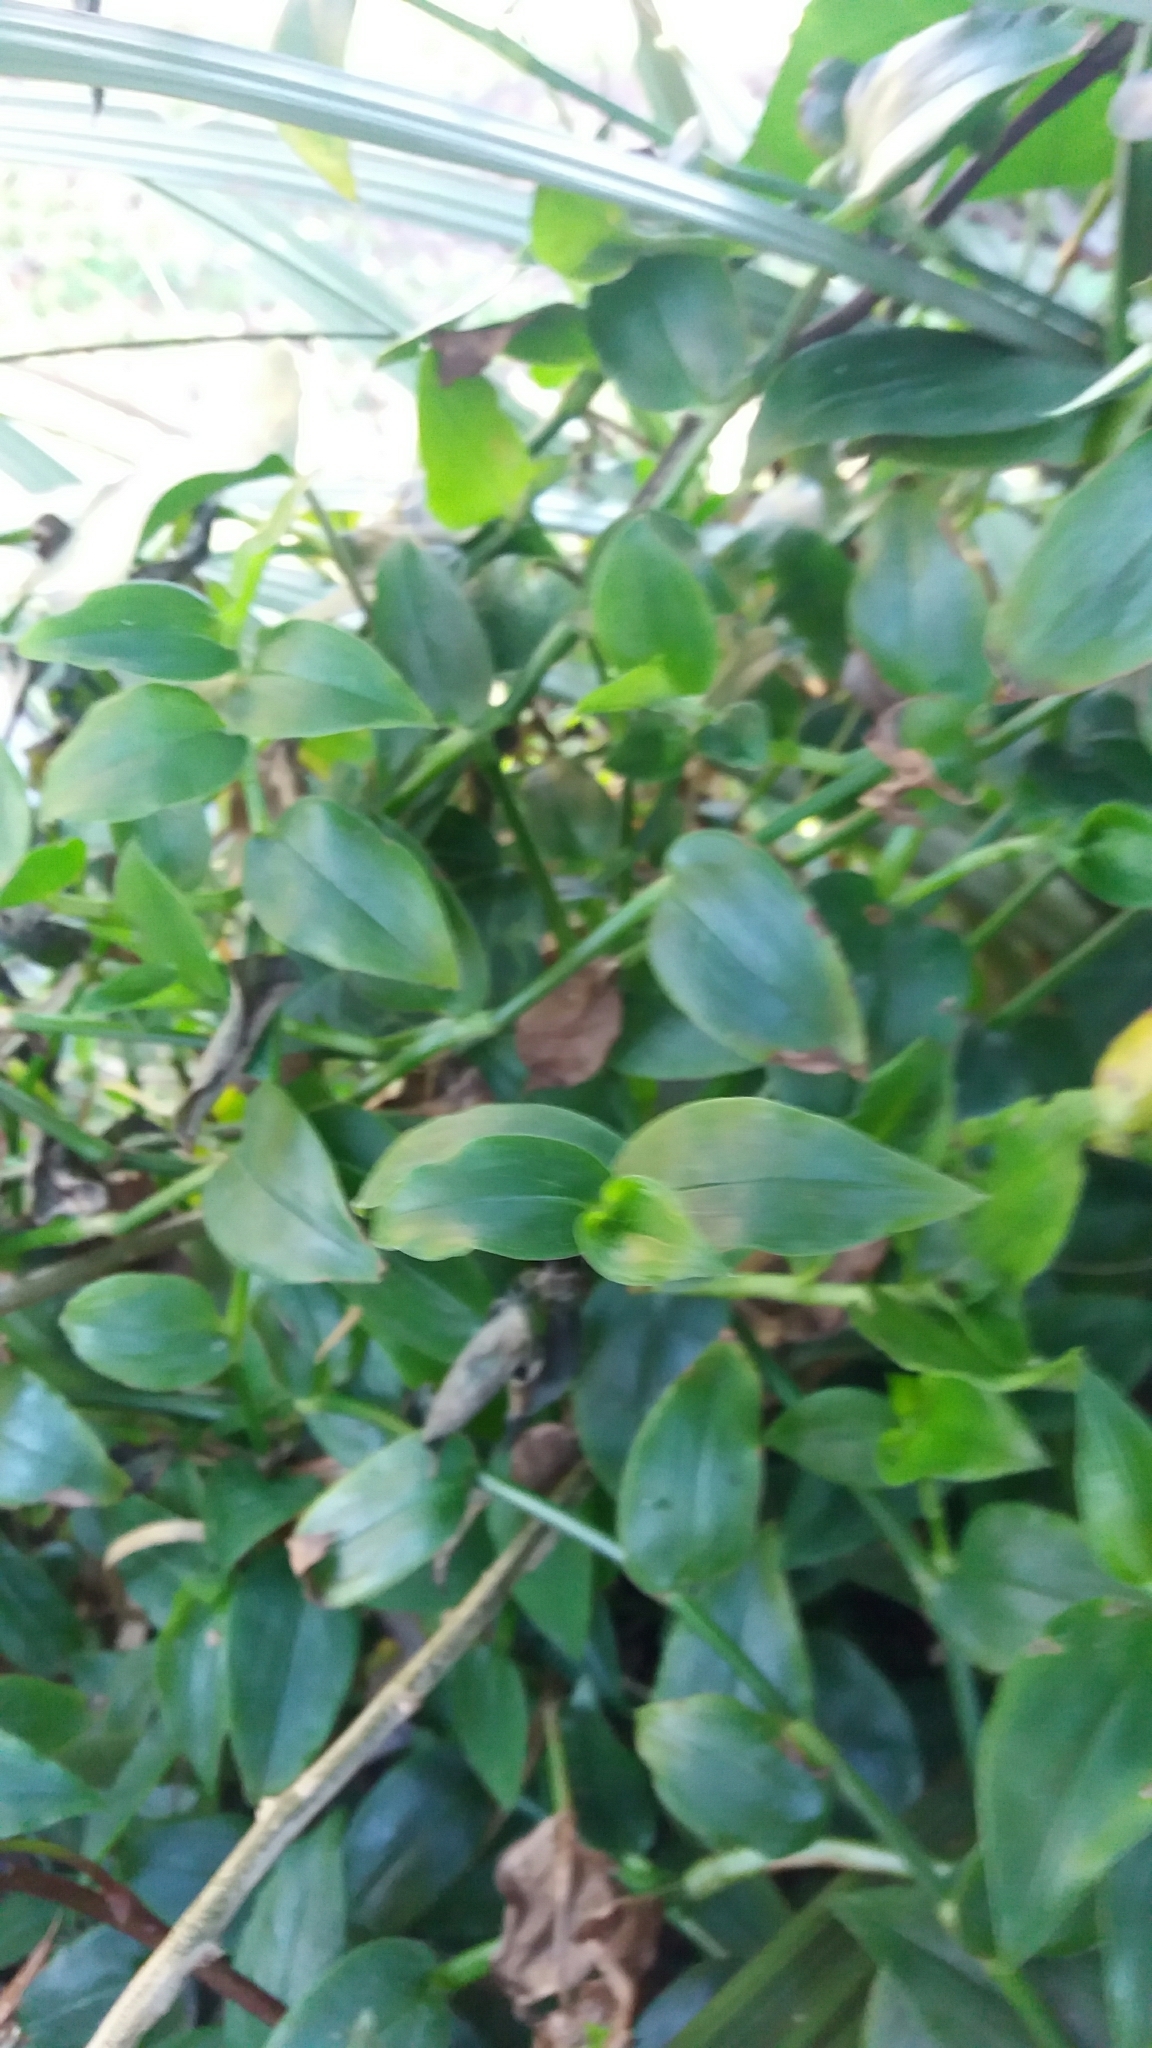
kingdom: Plantae
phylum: Tracheophyta
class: Liliopsida
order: Commelinales
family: Commelinaceae
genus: Tradescantia
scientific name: Tradescantia fluminensis
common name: Wandering-jew
